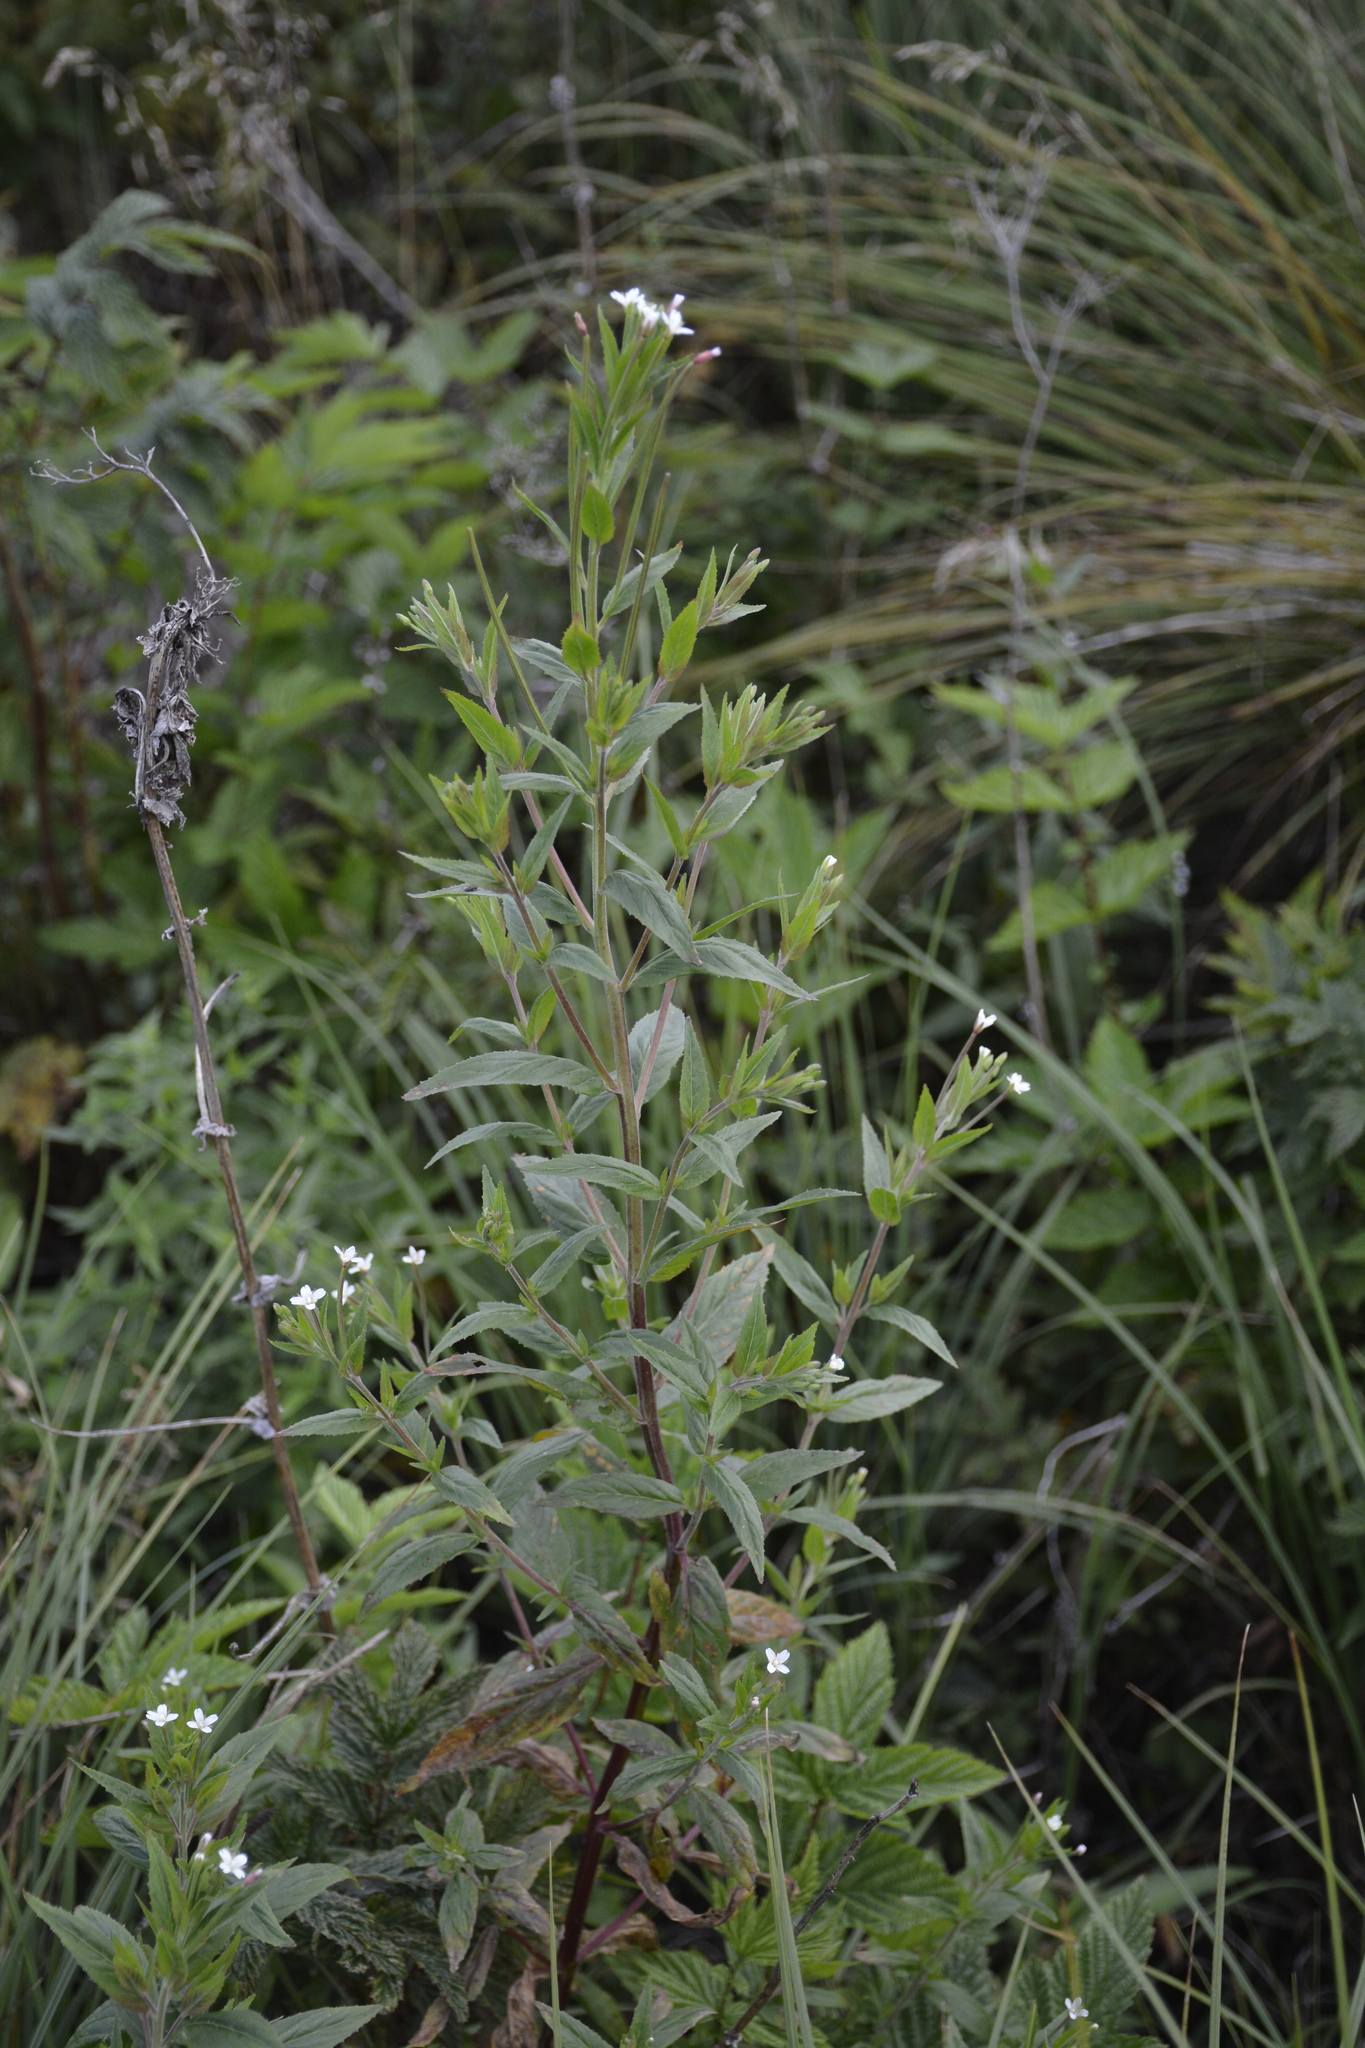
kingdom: Plantae
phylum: Tracheophyta
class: Magnoliopsida
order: Myrtales
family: Onagraceae
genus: Epilobium
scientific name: Epilobium pseudorubescens
